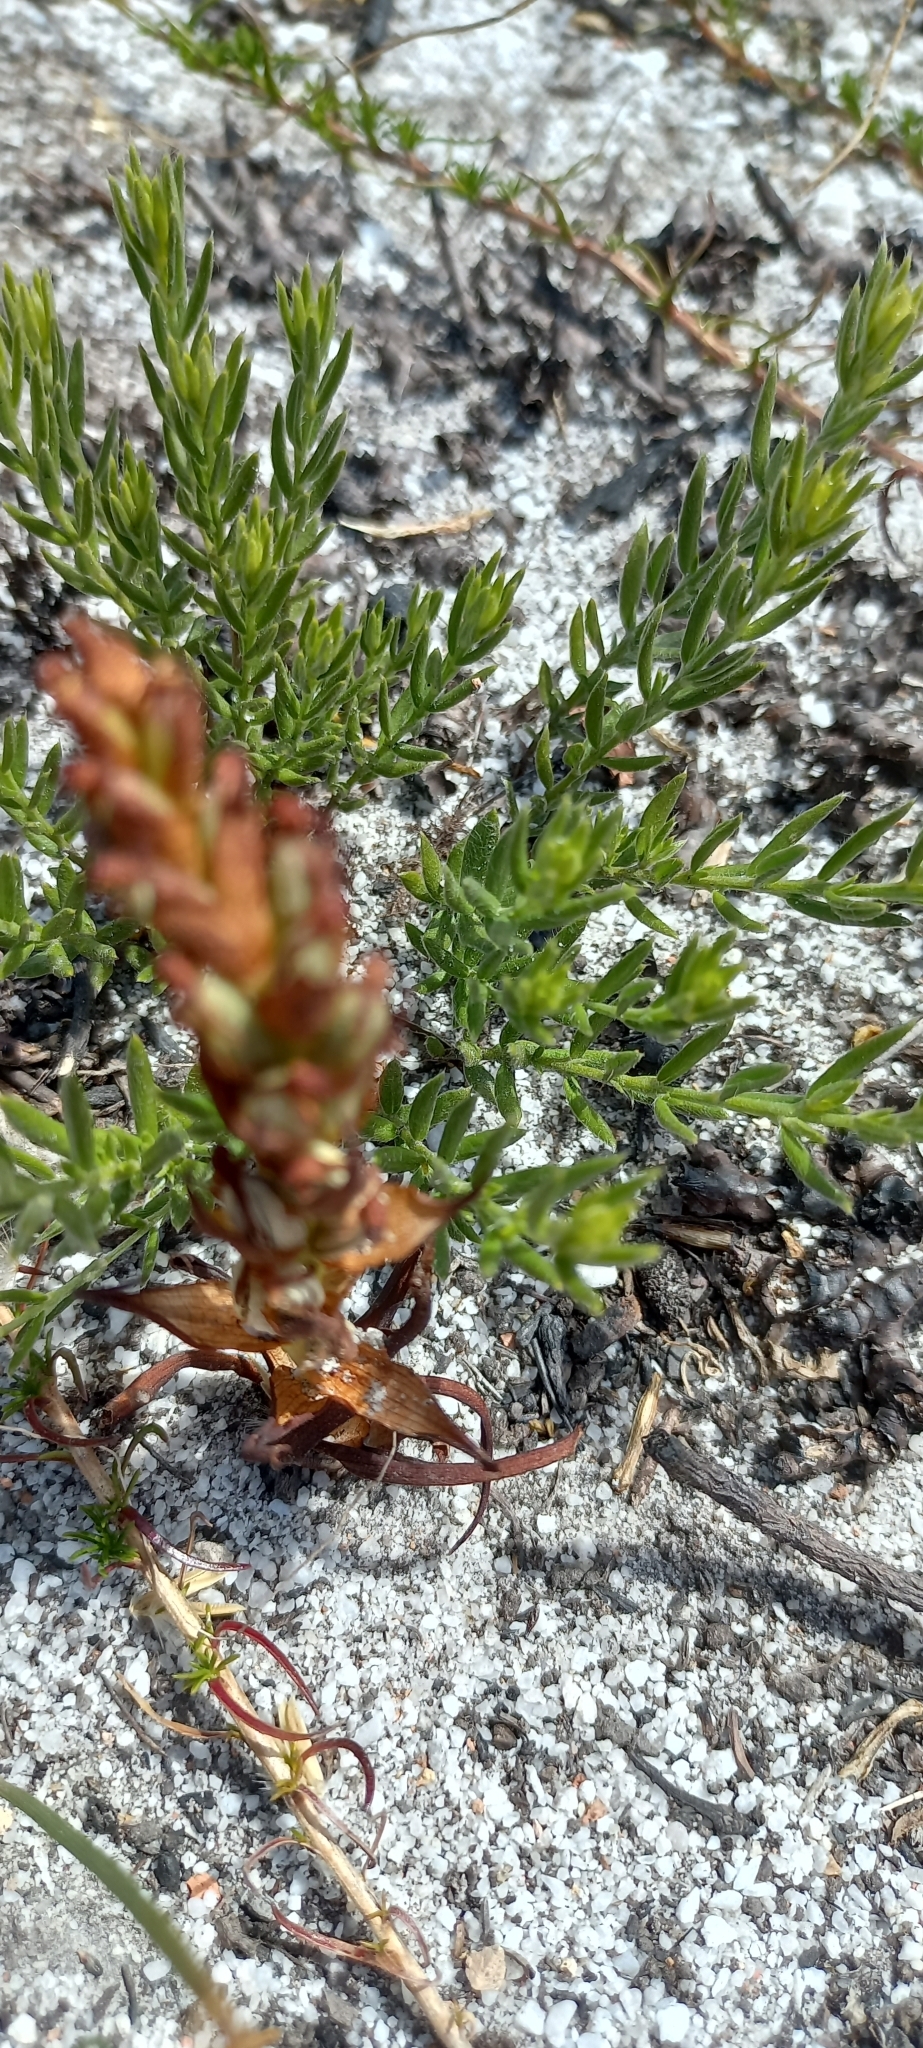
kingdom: Plantae
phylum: Tracheophyta
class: Liliopsida
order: Asparagales
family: Orchidaceae
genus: Disa
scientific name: Disa bracteata
